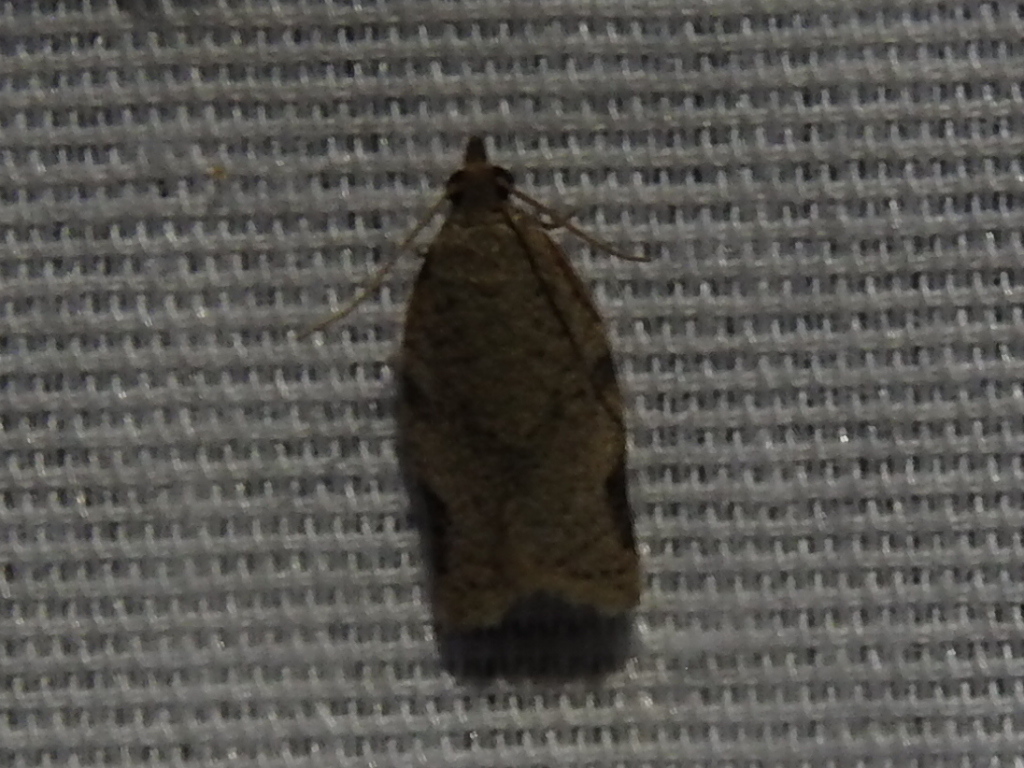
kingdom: Animalia
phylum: Arthropoda
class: Insecta
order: Lepidoptera
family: Tortricidae
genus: Clepsis
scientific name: Clepsis virescana
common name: Greenish apple moth
